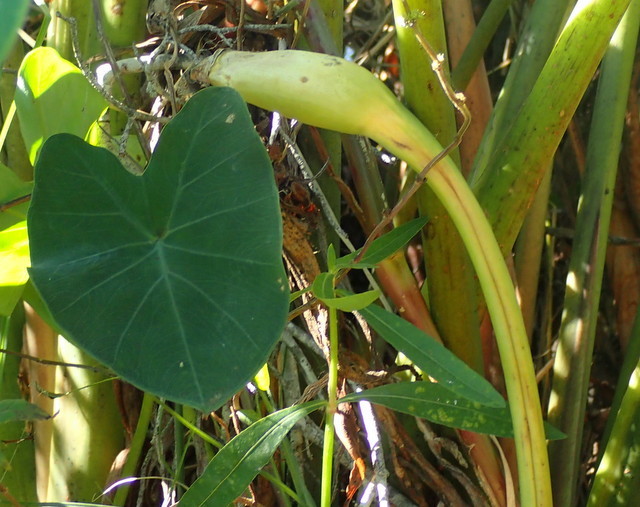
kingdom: Plantae
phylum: Tracheophyta
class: Liliopsida
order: Alismatales
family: Araceae
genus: Colocasia
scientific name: Colocasia esculenta
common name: Taro
